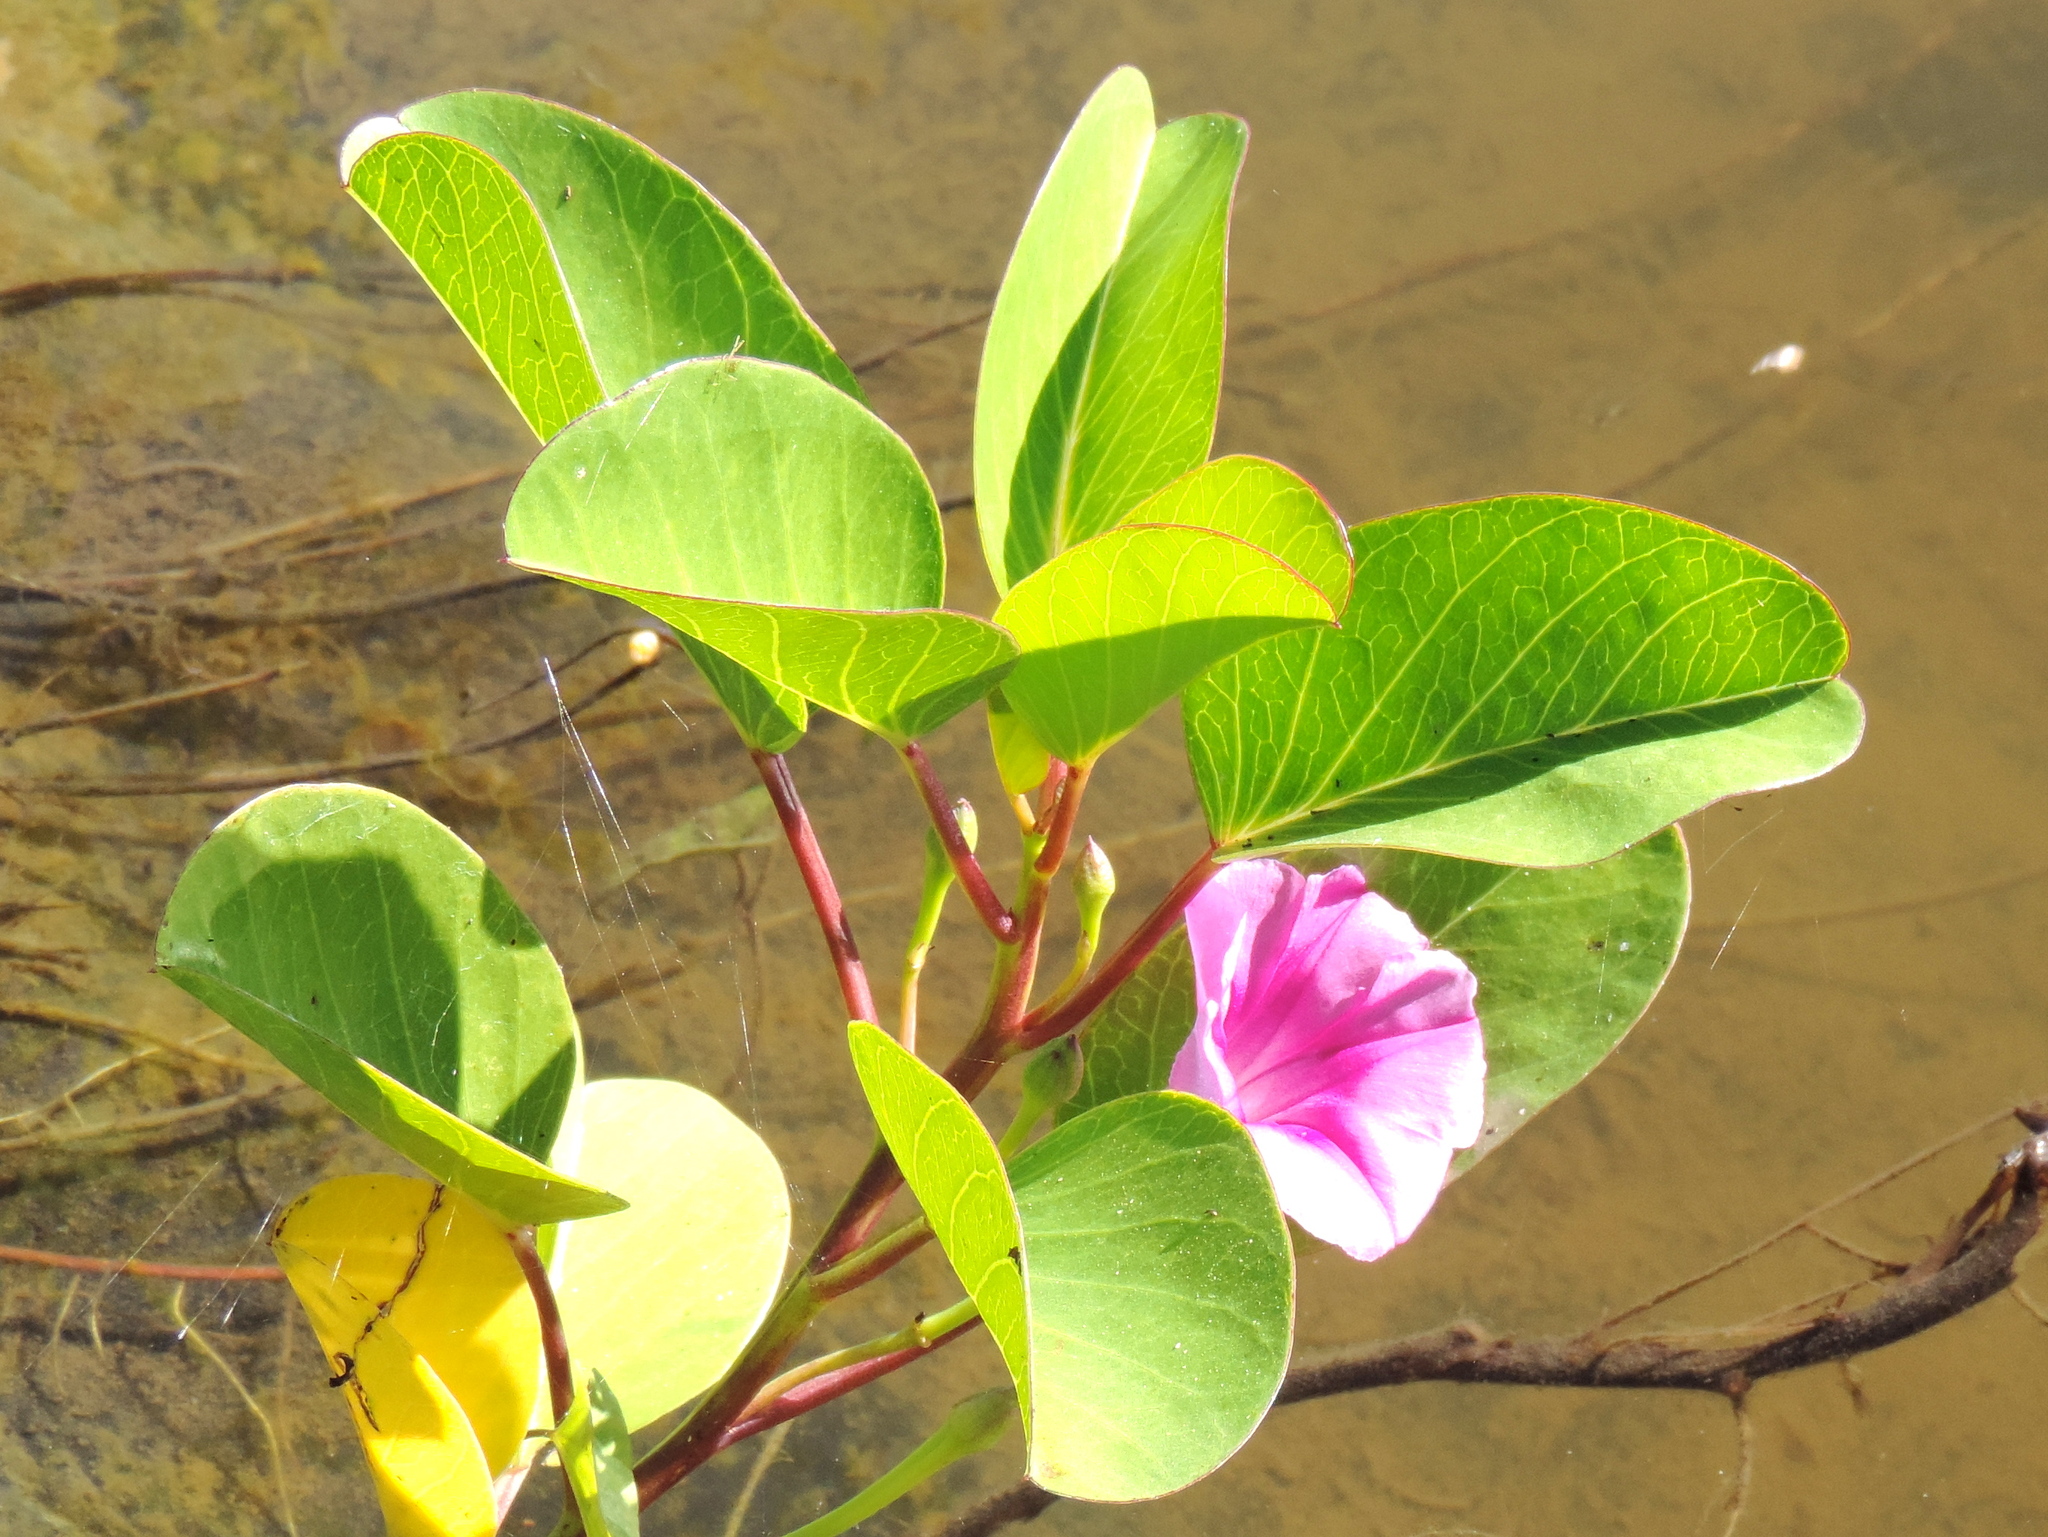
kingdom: Plantae
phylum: Tracheophyta
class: Magnoliopsida
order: Solanales
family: Convolvulaceae
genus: Ipomoea
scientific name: Ipomoea pes-caprae
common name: Beach morning glory
